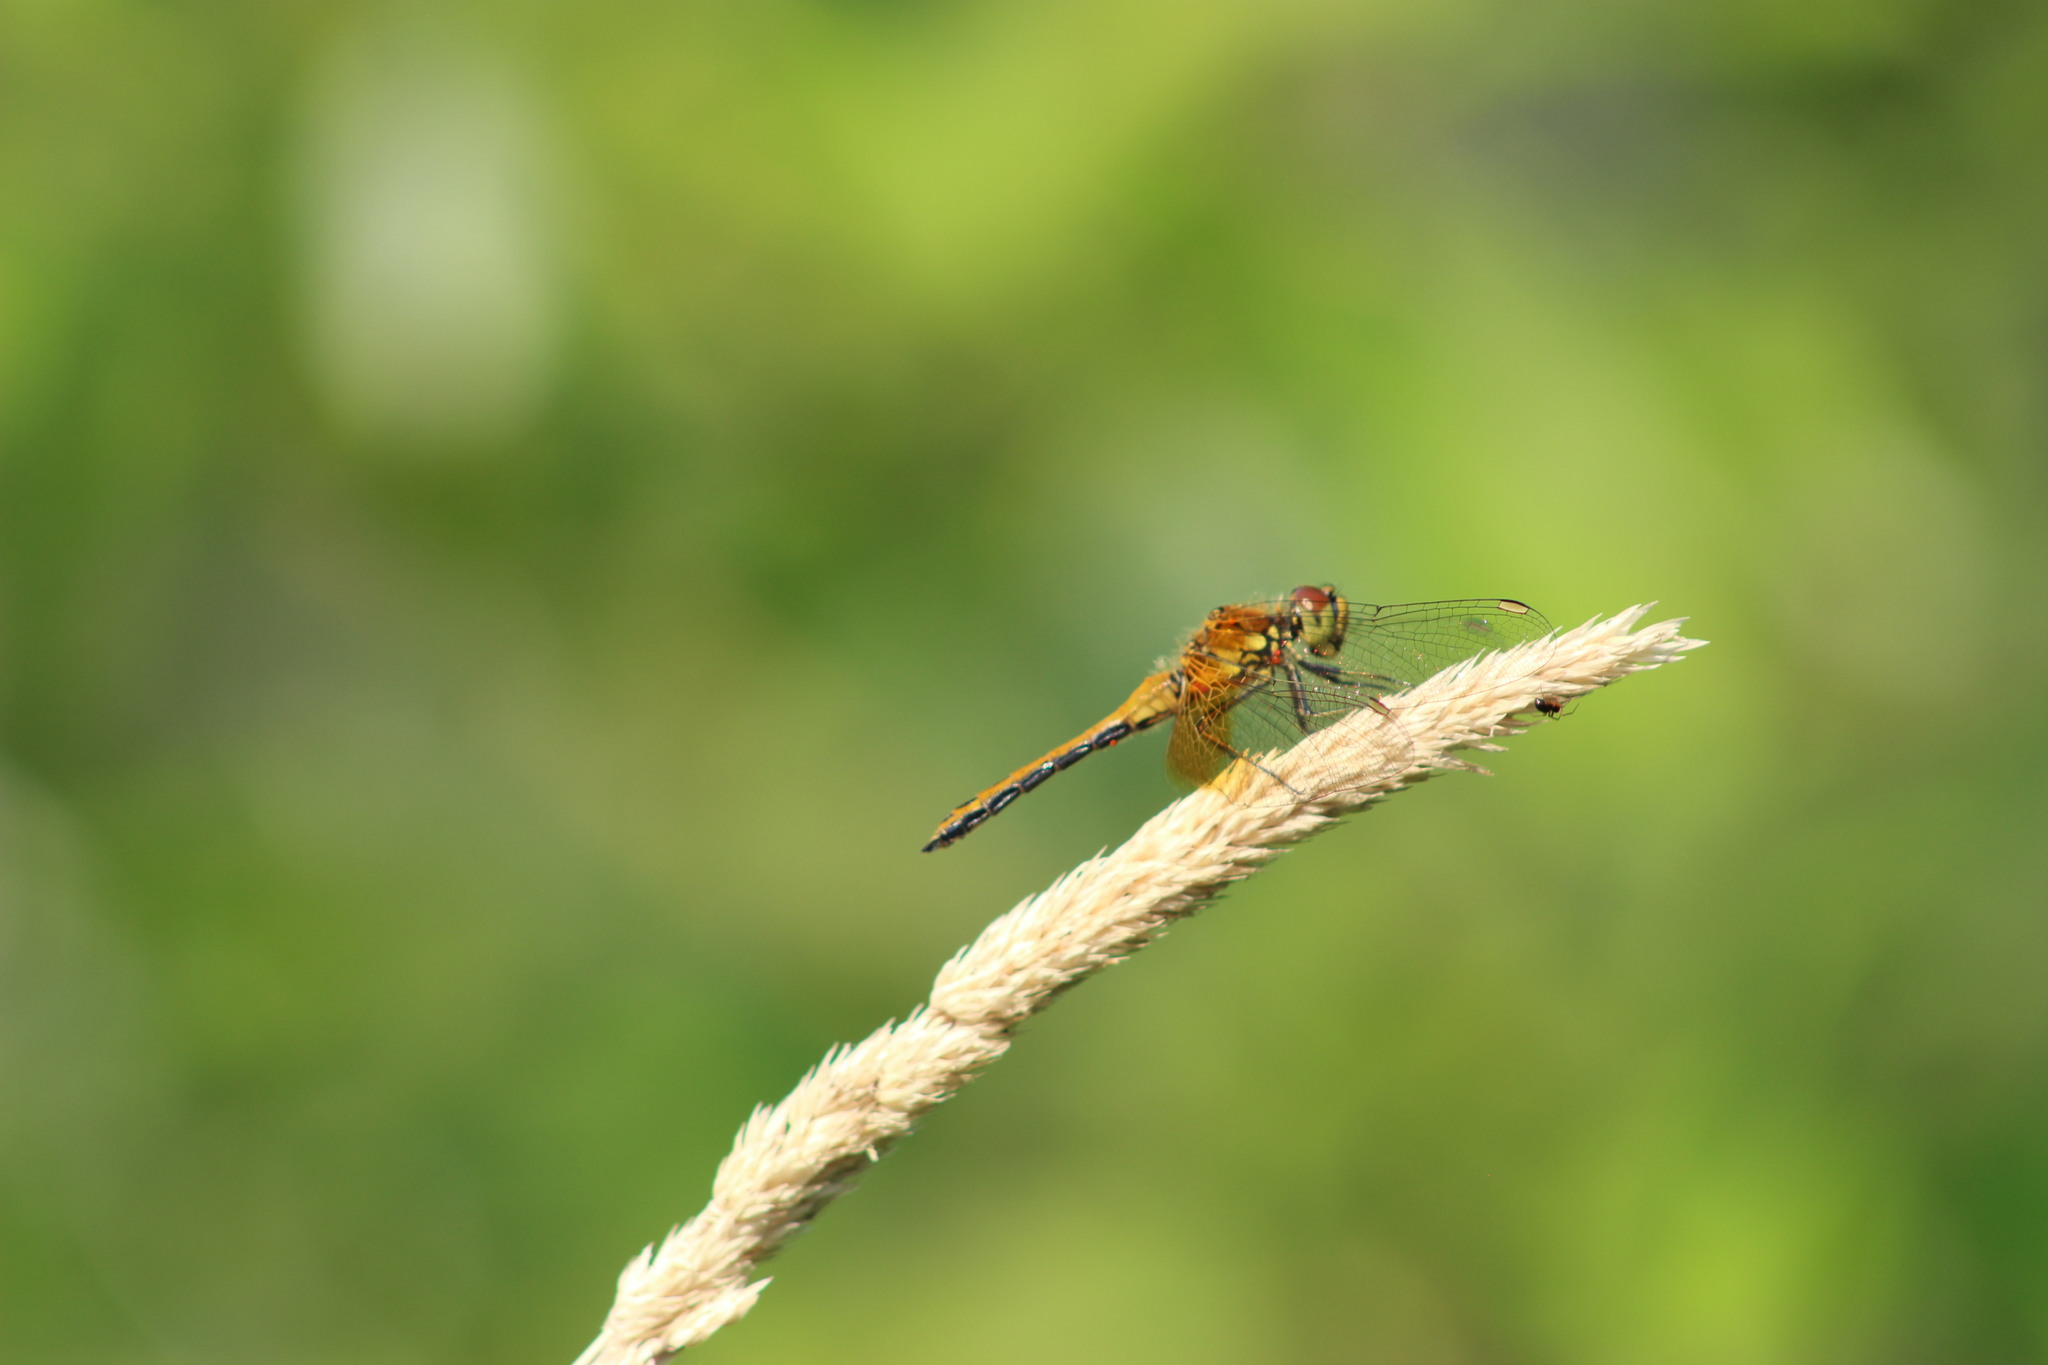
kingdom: Animalia
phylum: Arthropoda
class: Insecta
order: Odonata
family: Libellulidae
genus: Sympetrum
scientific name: Sympetrum flaveolum
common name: Yellow-winged darter
